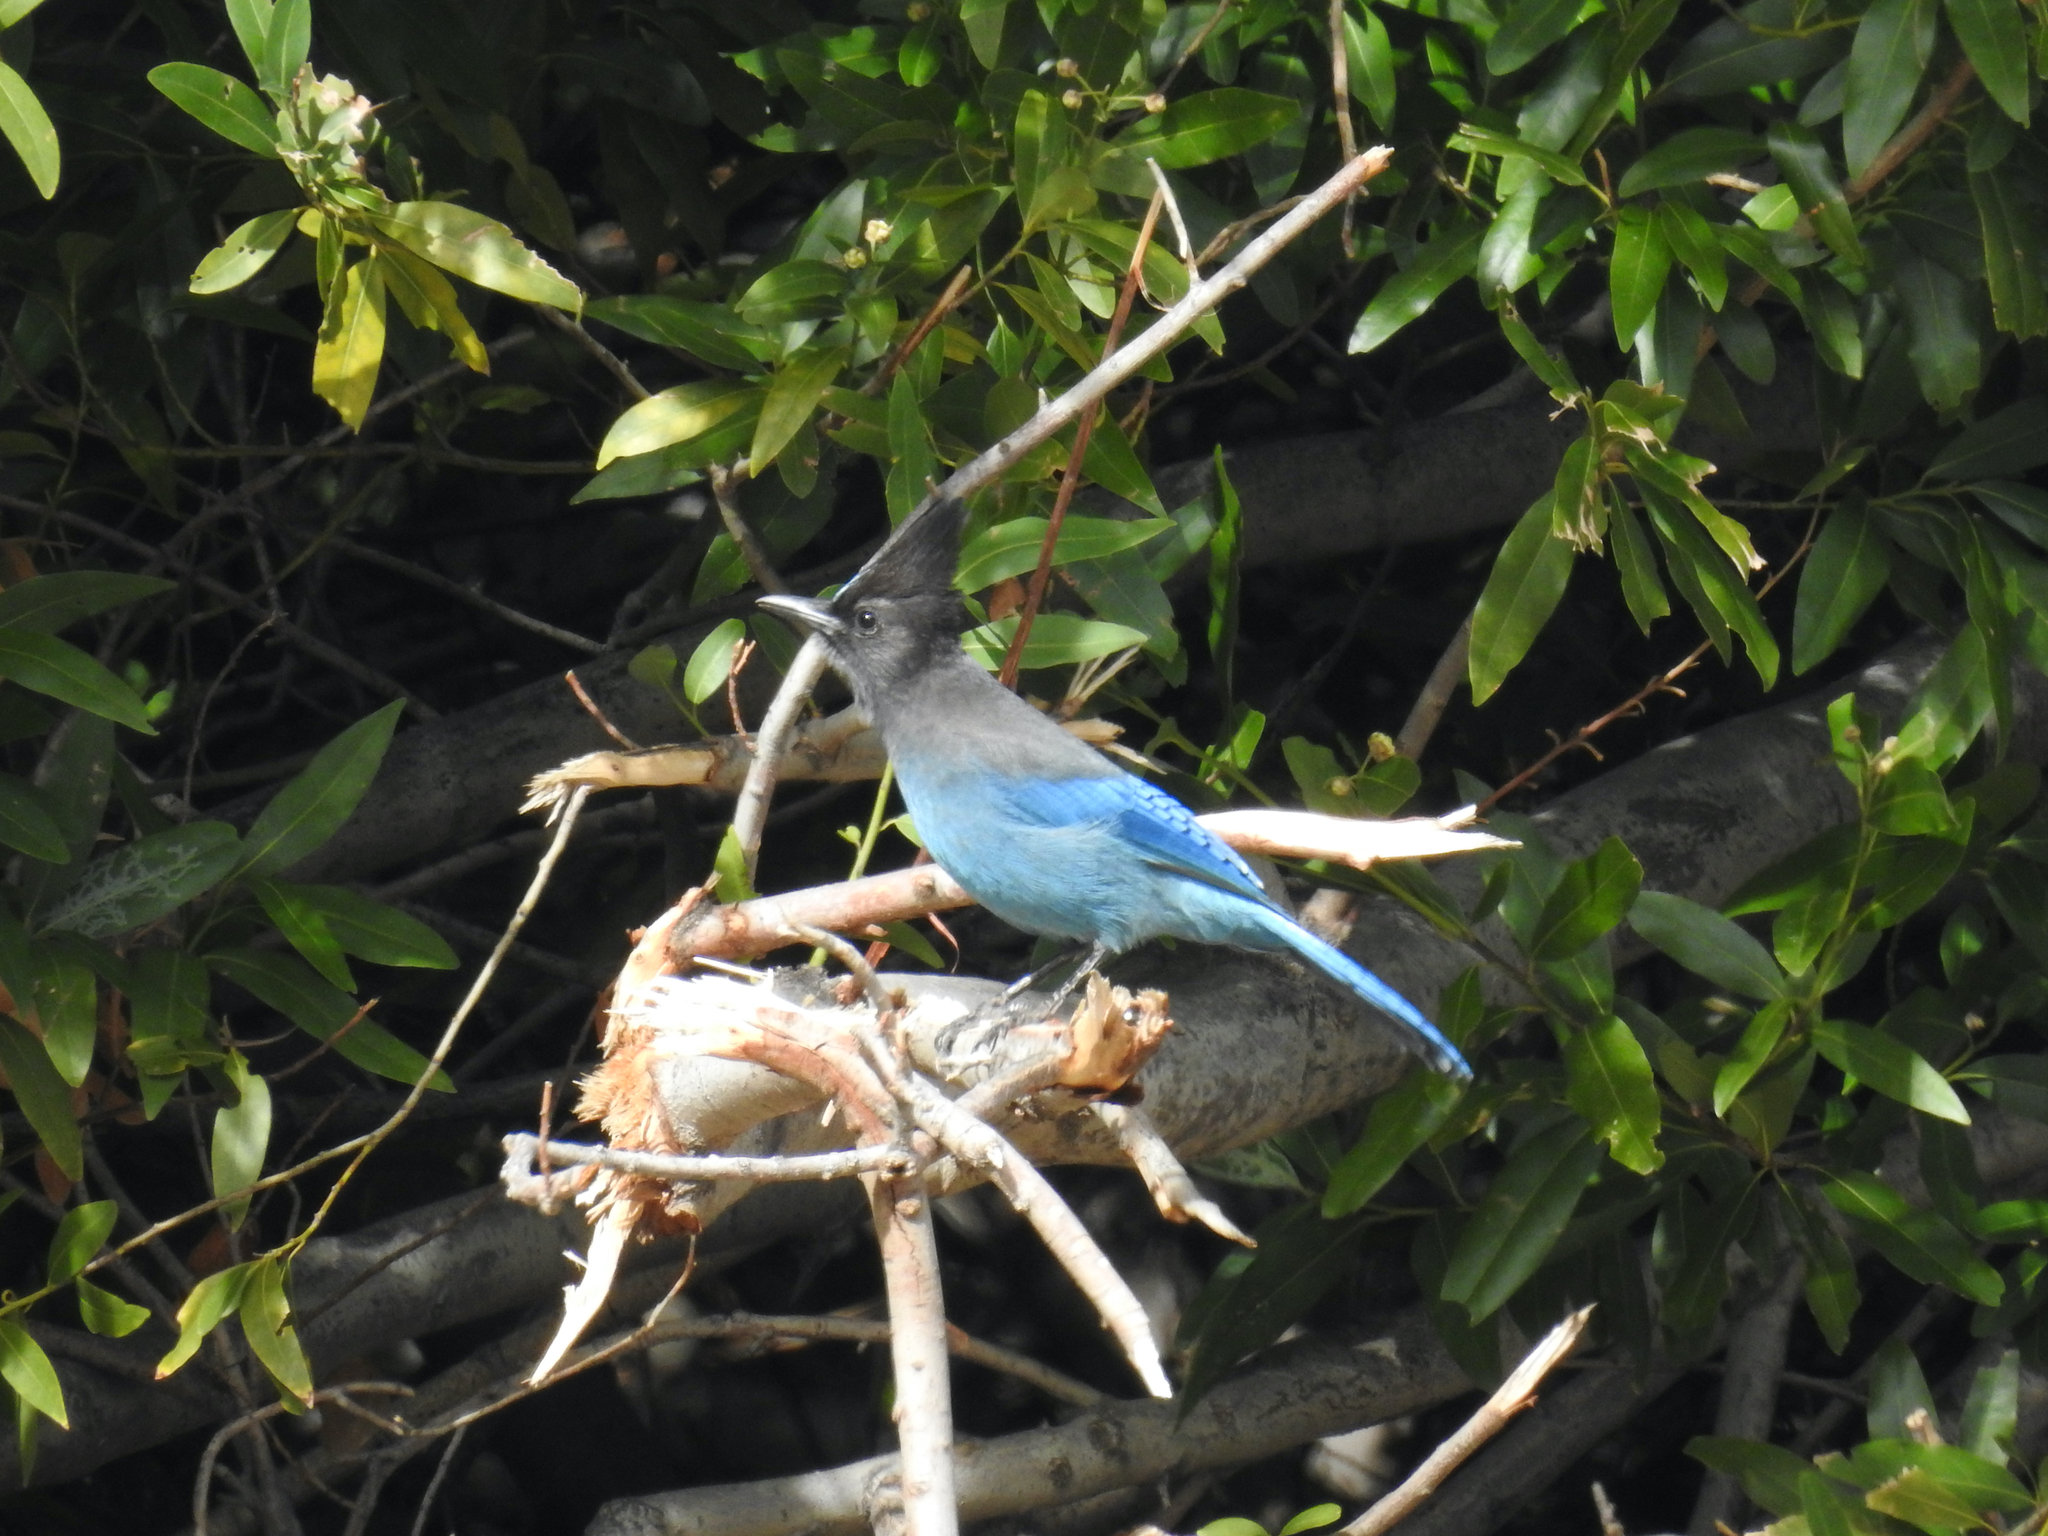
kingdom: Animalia
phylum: Chordata
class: Aves
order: Passeriformes
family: Corvidae
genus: Cyanocitta
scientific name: Cyanocitta stelleri
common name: Steller's jay
